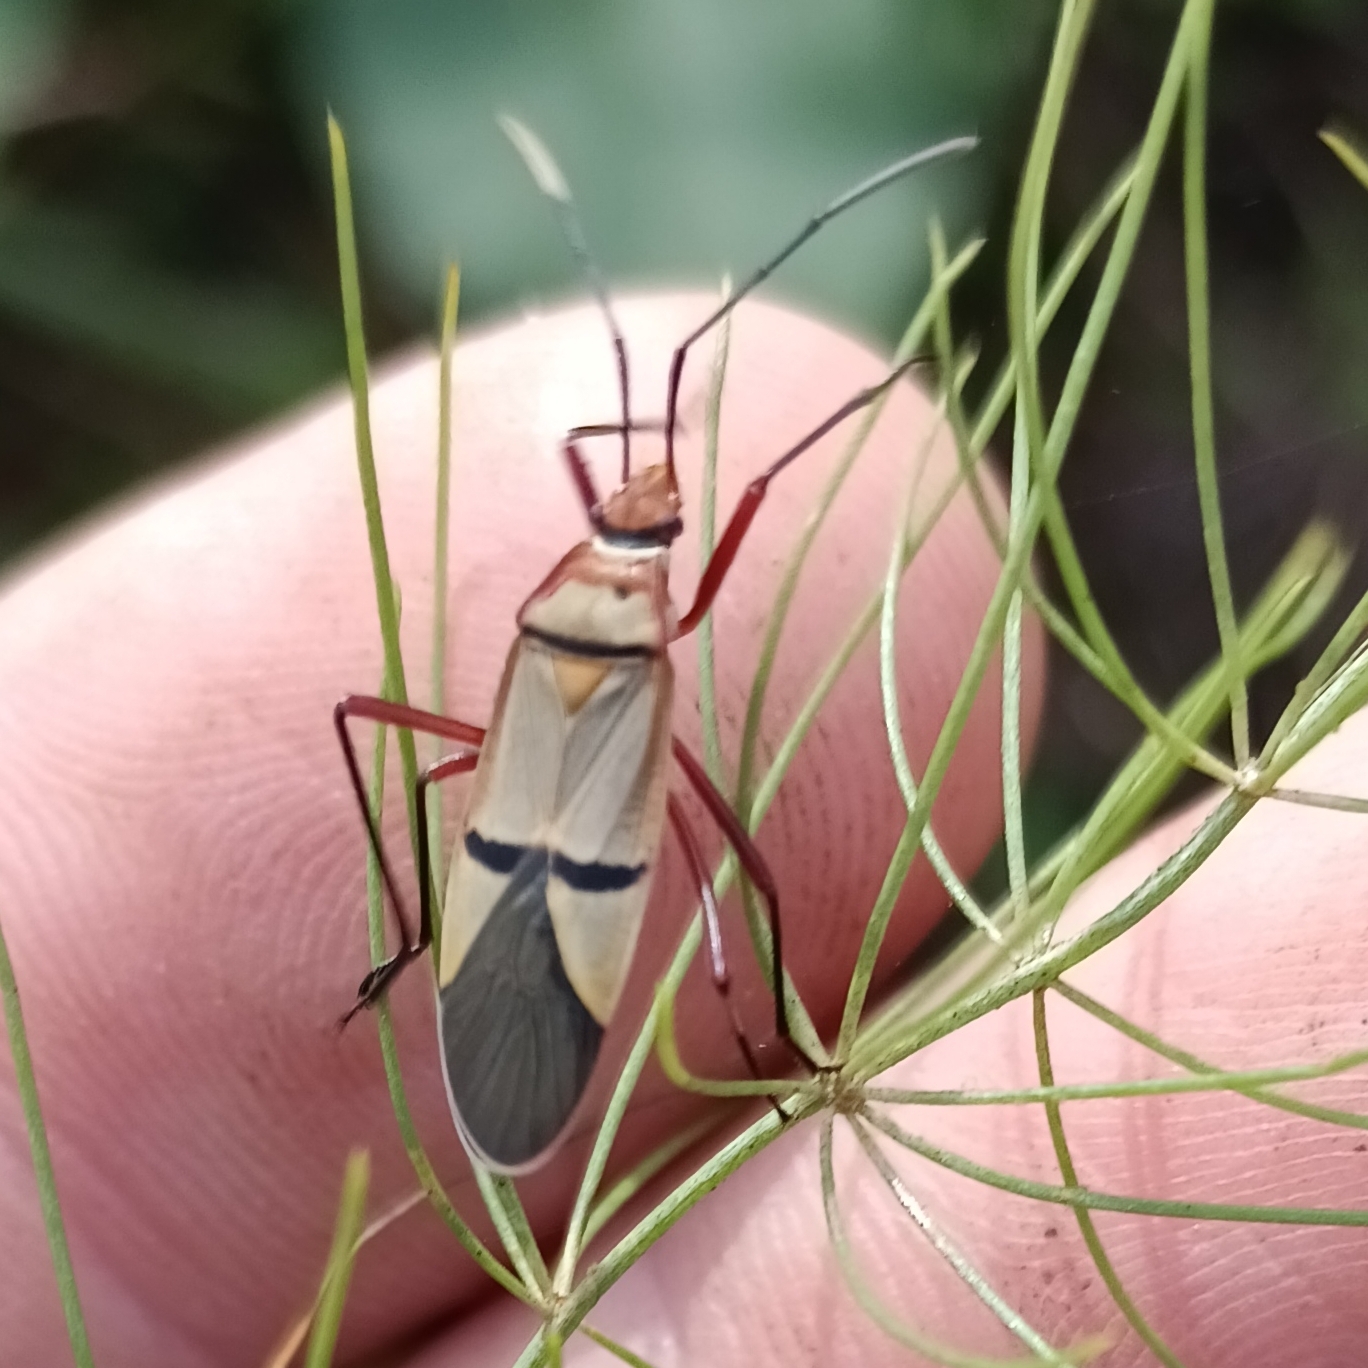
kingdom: Animalia
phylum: Arthropoda
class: Insecta
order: Hemiptera
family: Pyrrhocoridae
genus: Dysdercus
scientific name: Dysdercus
